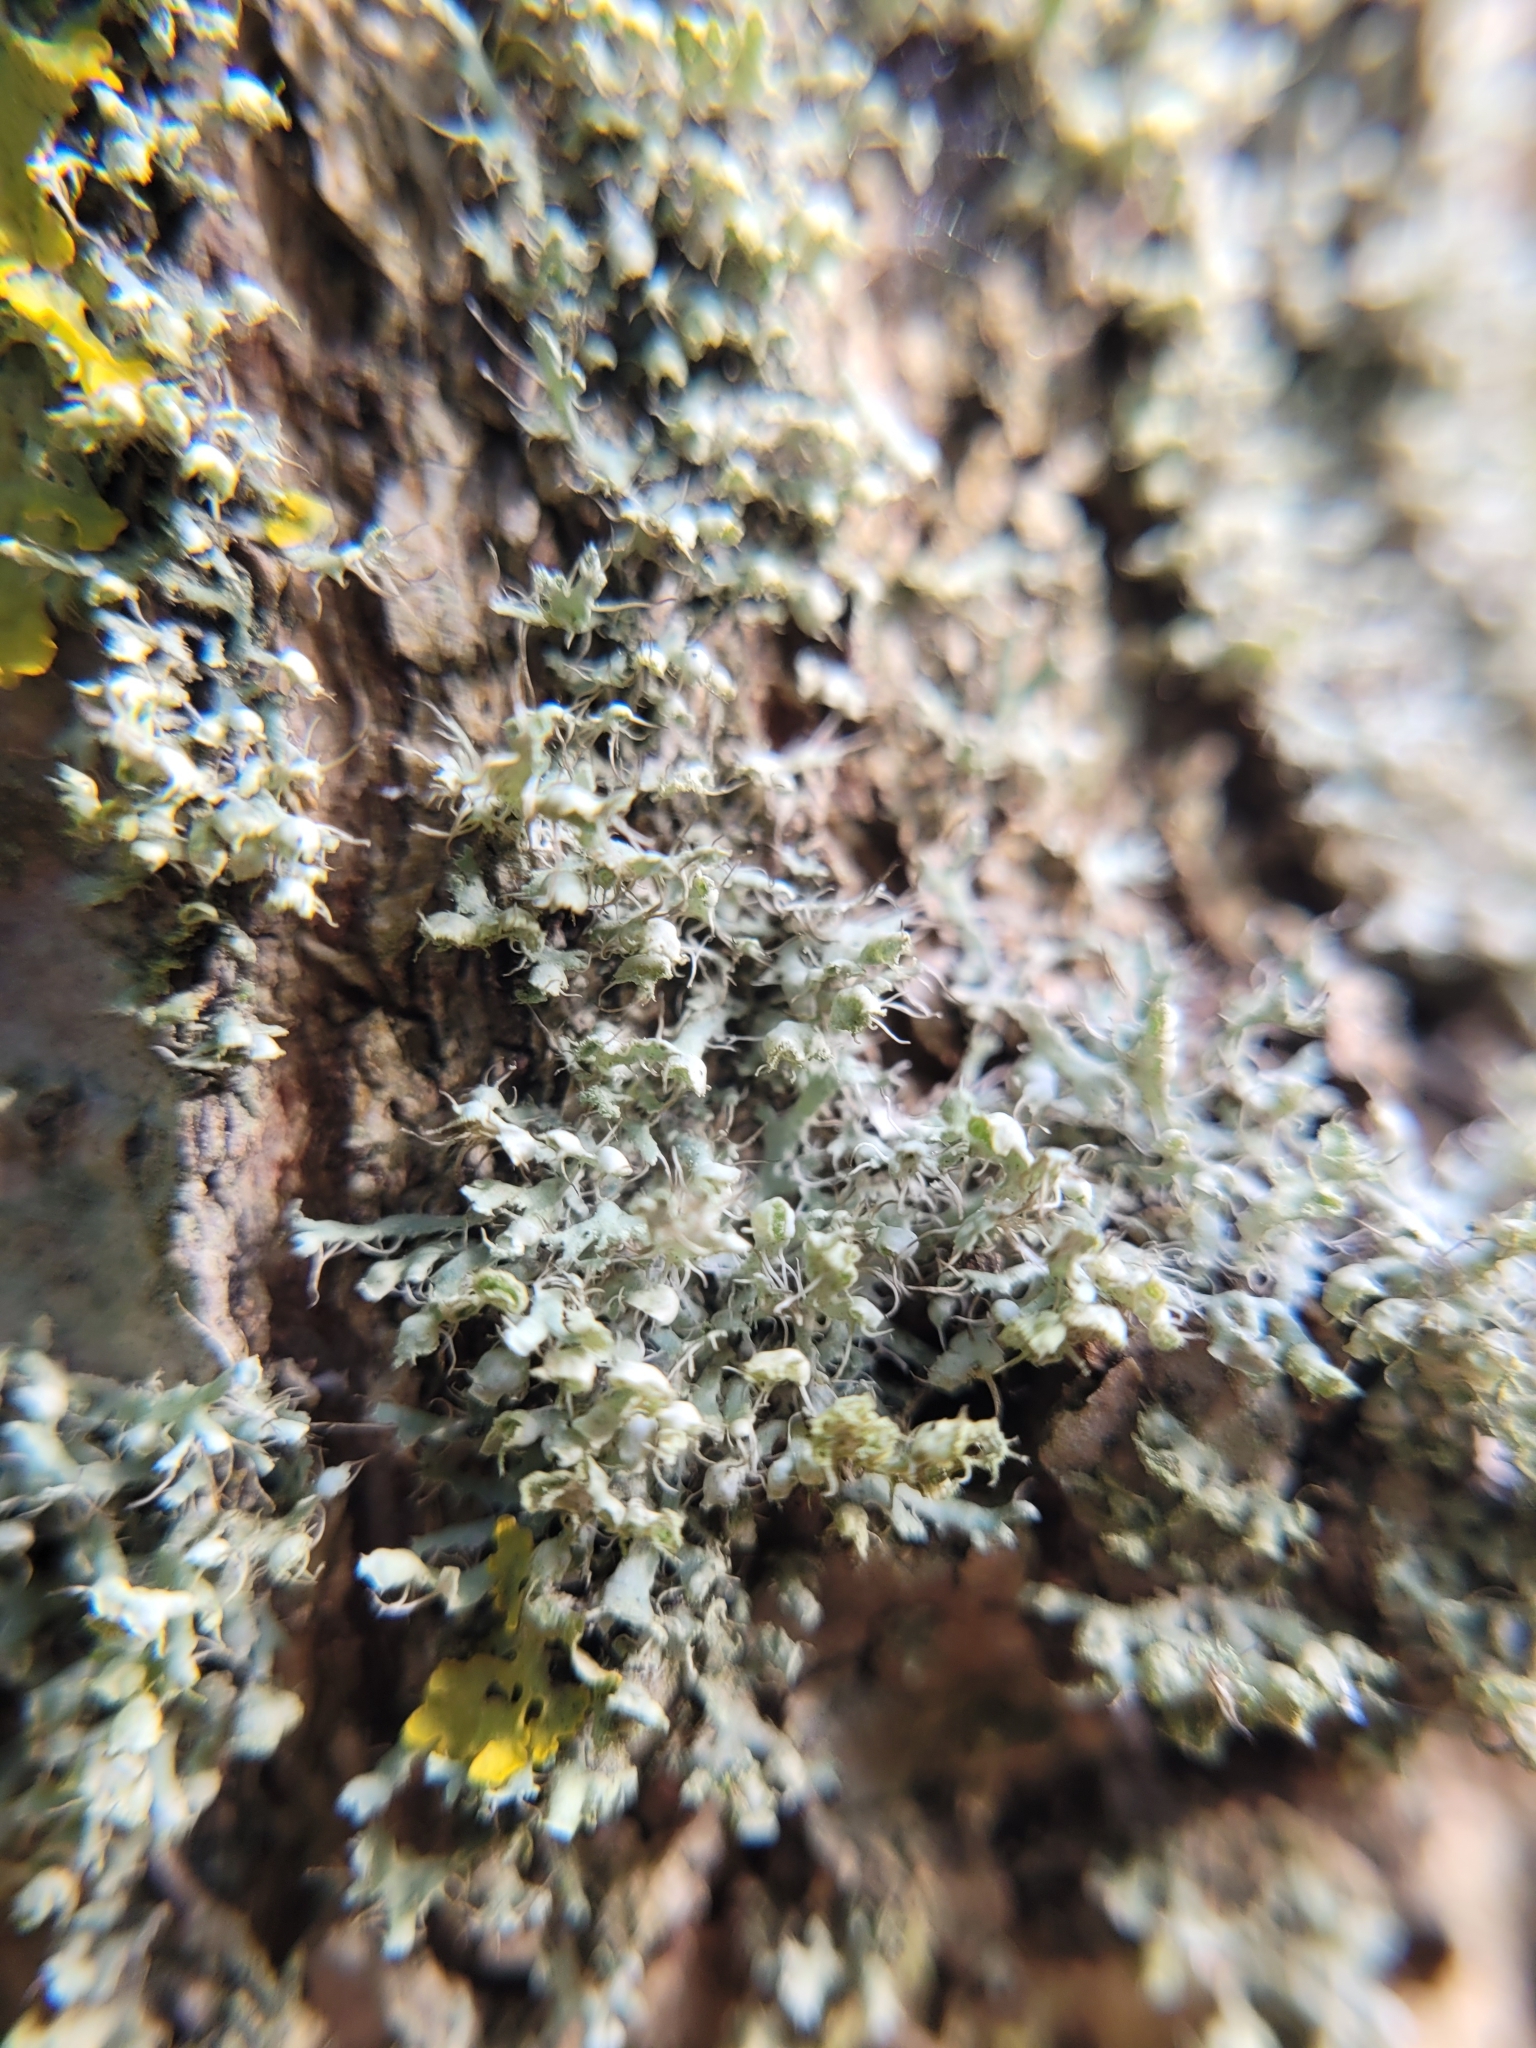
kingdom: Fungi
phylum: Ascomycota
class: Lecanoromycetes
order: Caliciales
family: Physciaceae
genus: Physcia
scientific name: Physcia adscendens
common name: Hooded rosette lichen
